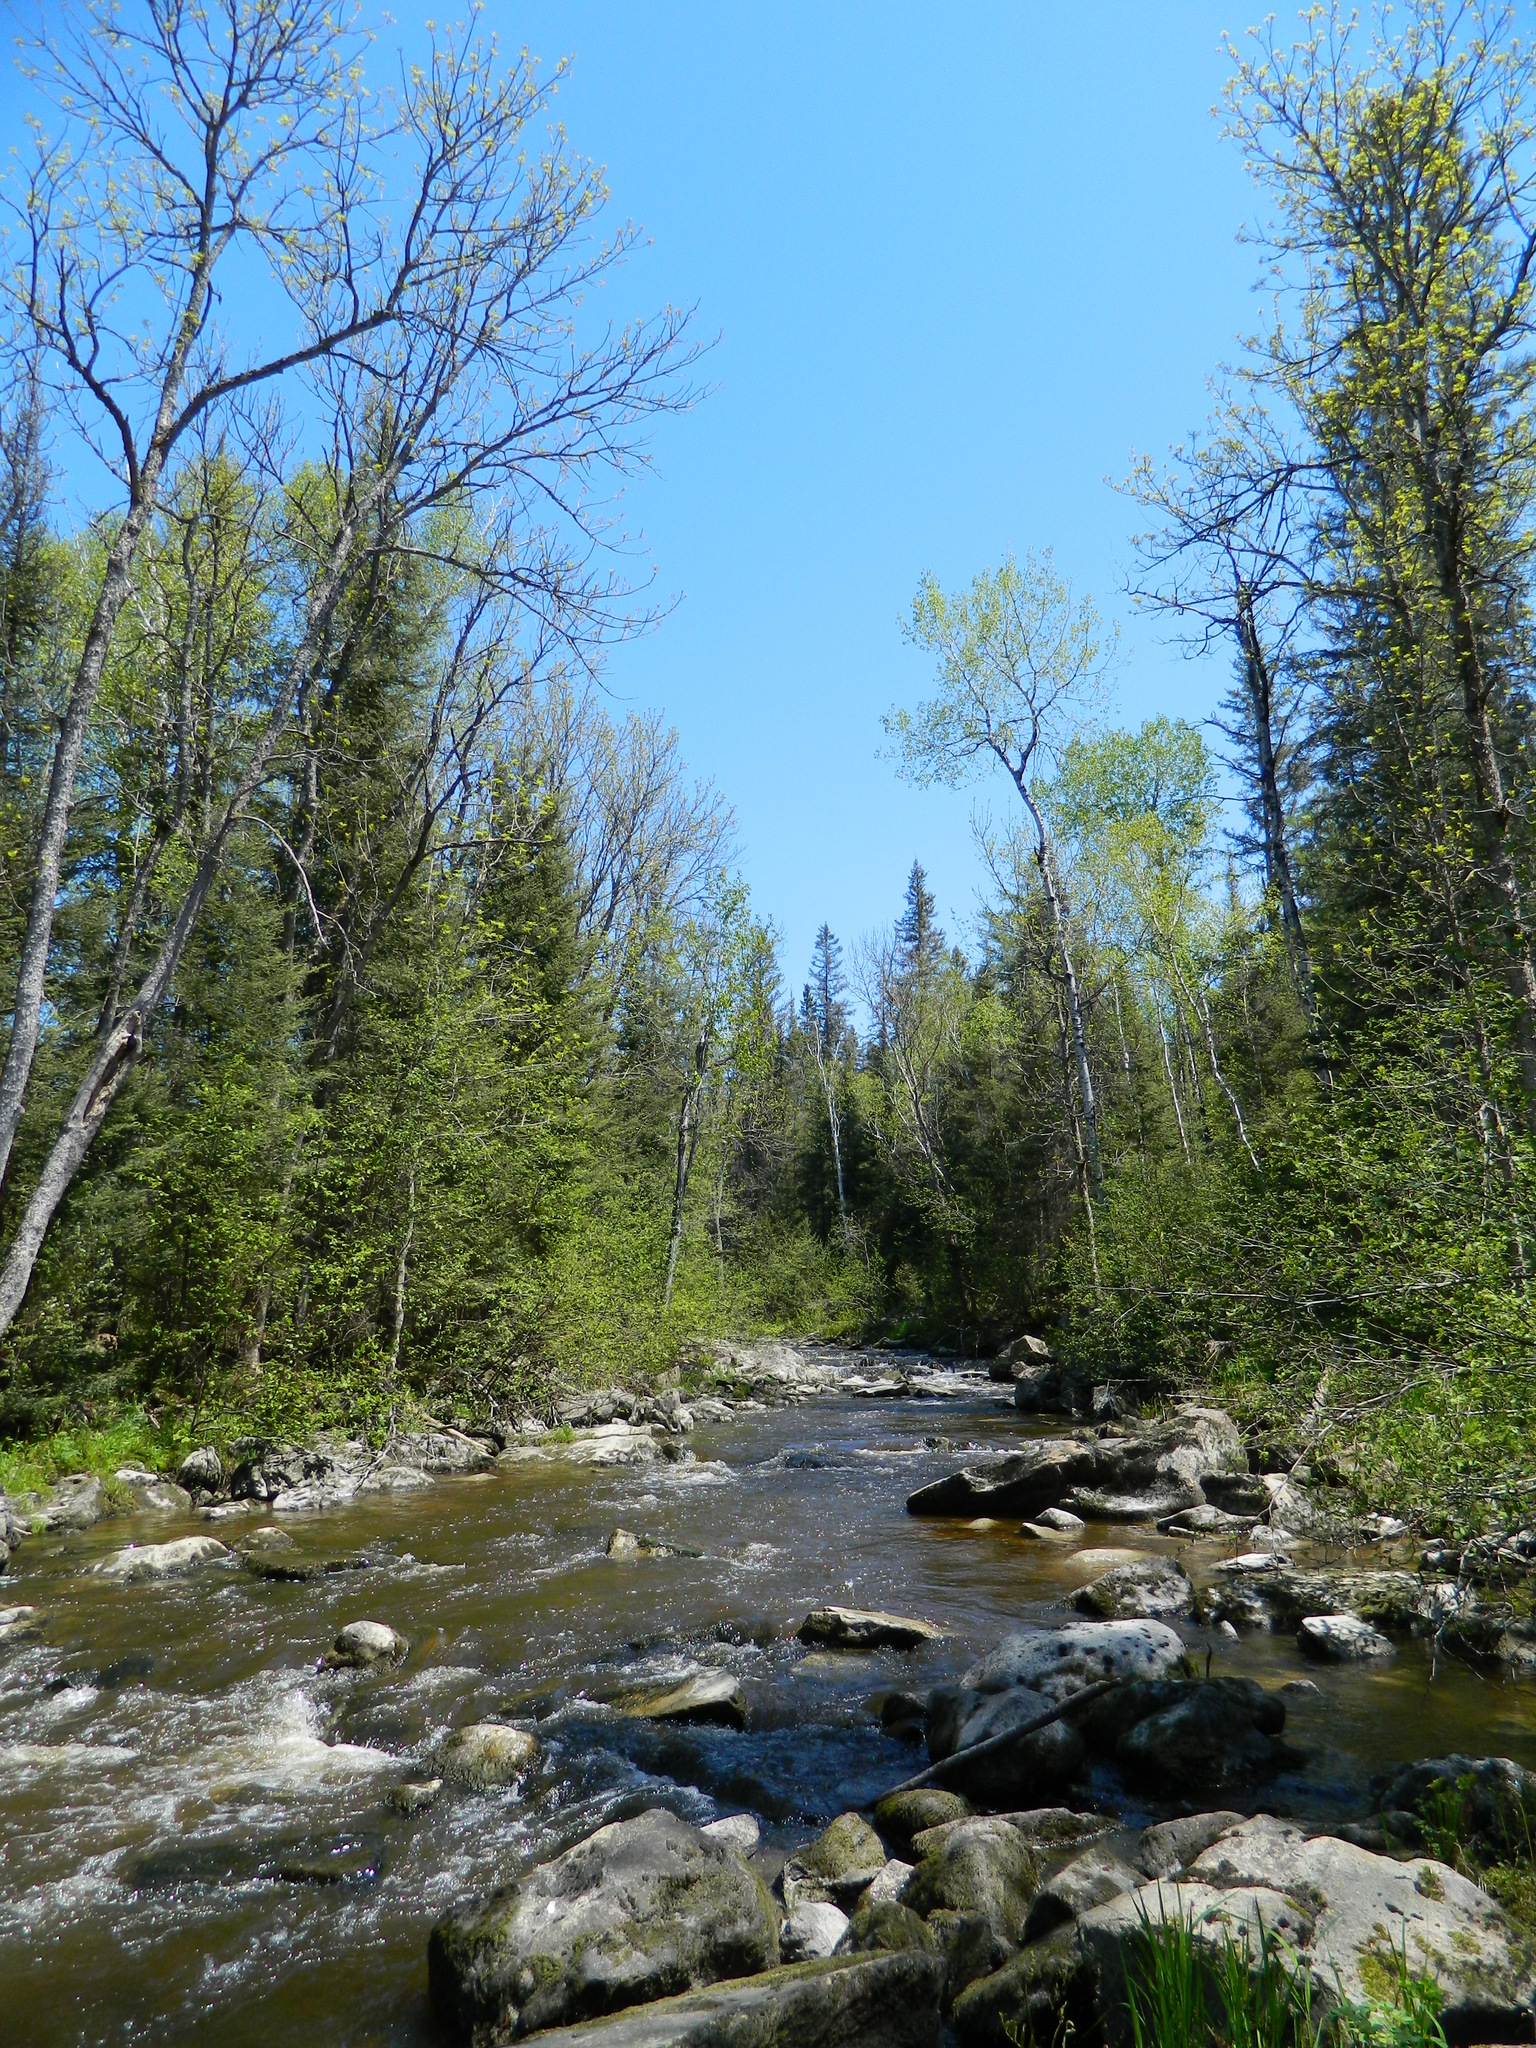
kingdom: Plantae
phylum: Tracheophyta
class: Magnoliopsida
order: Lamiales
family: Oleaceae
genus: Fraxinus
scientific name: Fraxinus nigra
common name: Black ash
